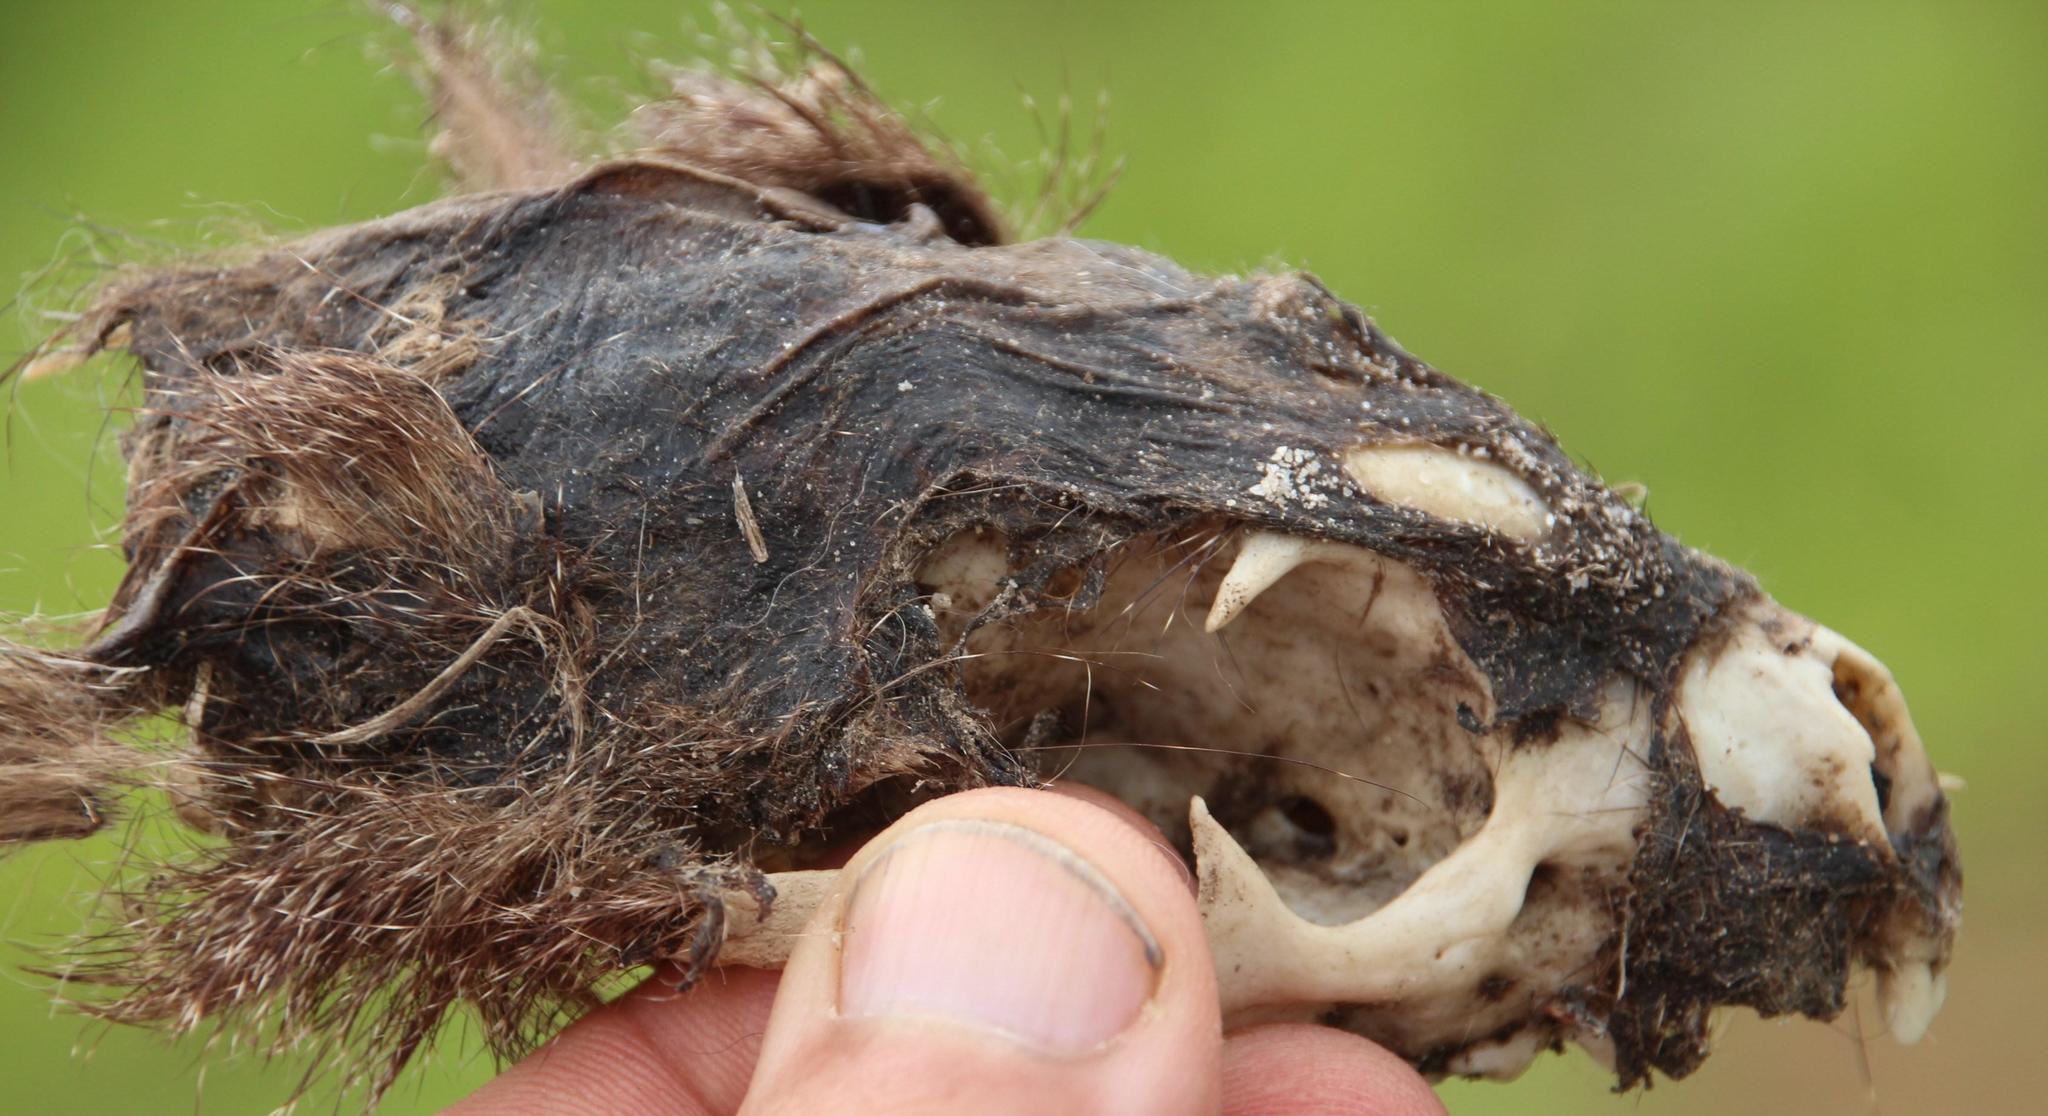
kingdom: Animalia
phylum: Chordata
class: Mammalia
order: Carnivora
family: Herpestidae
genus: Atilax
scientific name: Atilax paludinosus
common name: Marsh mongoose
